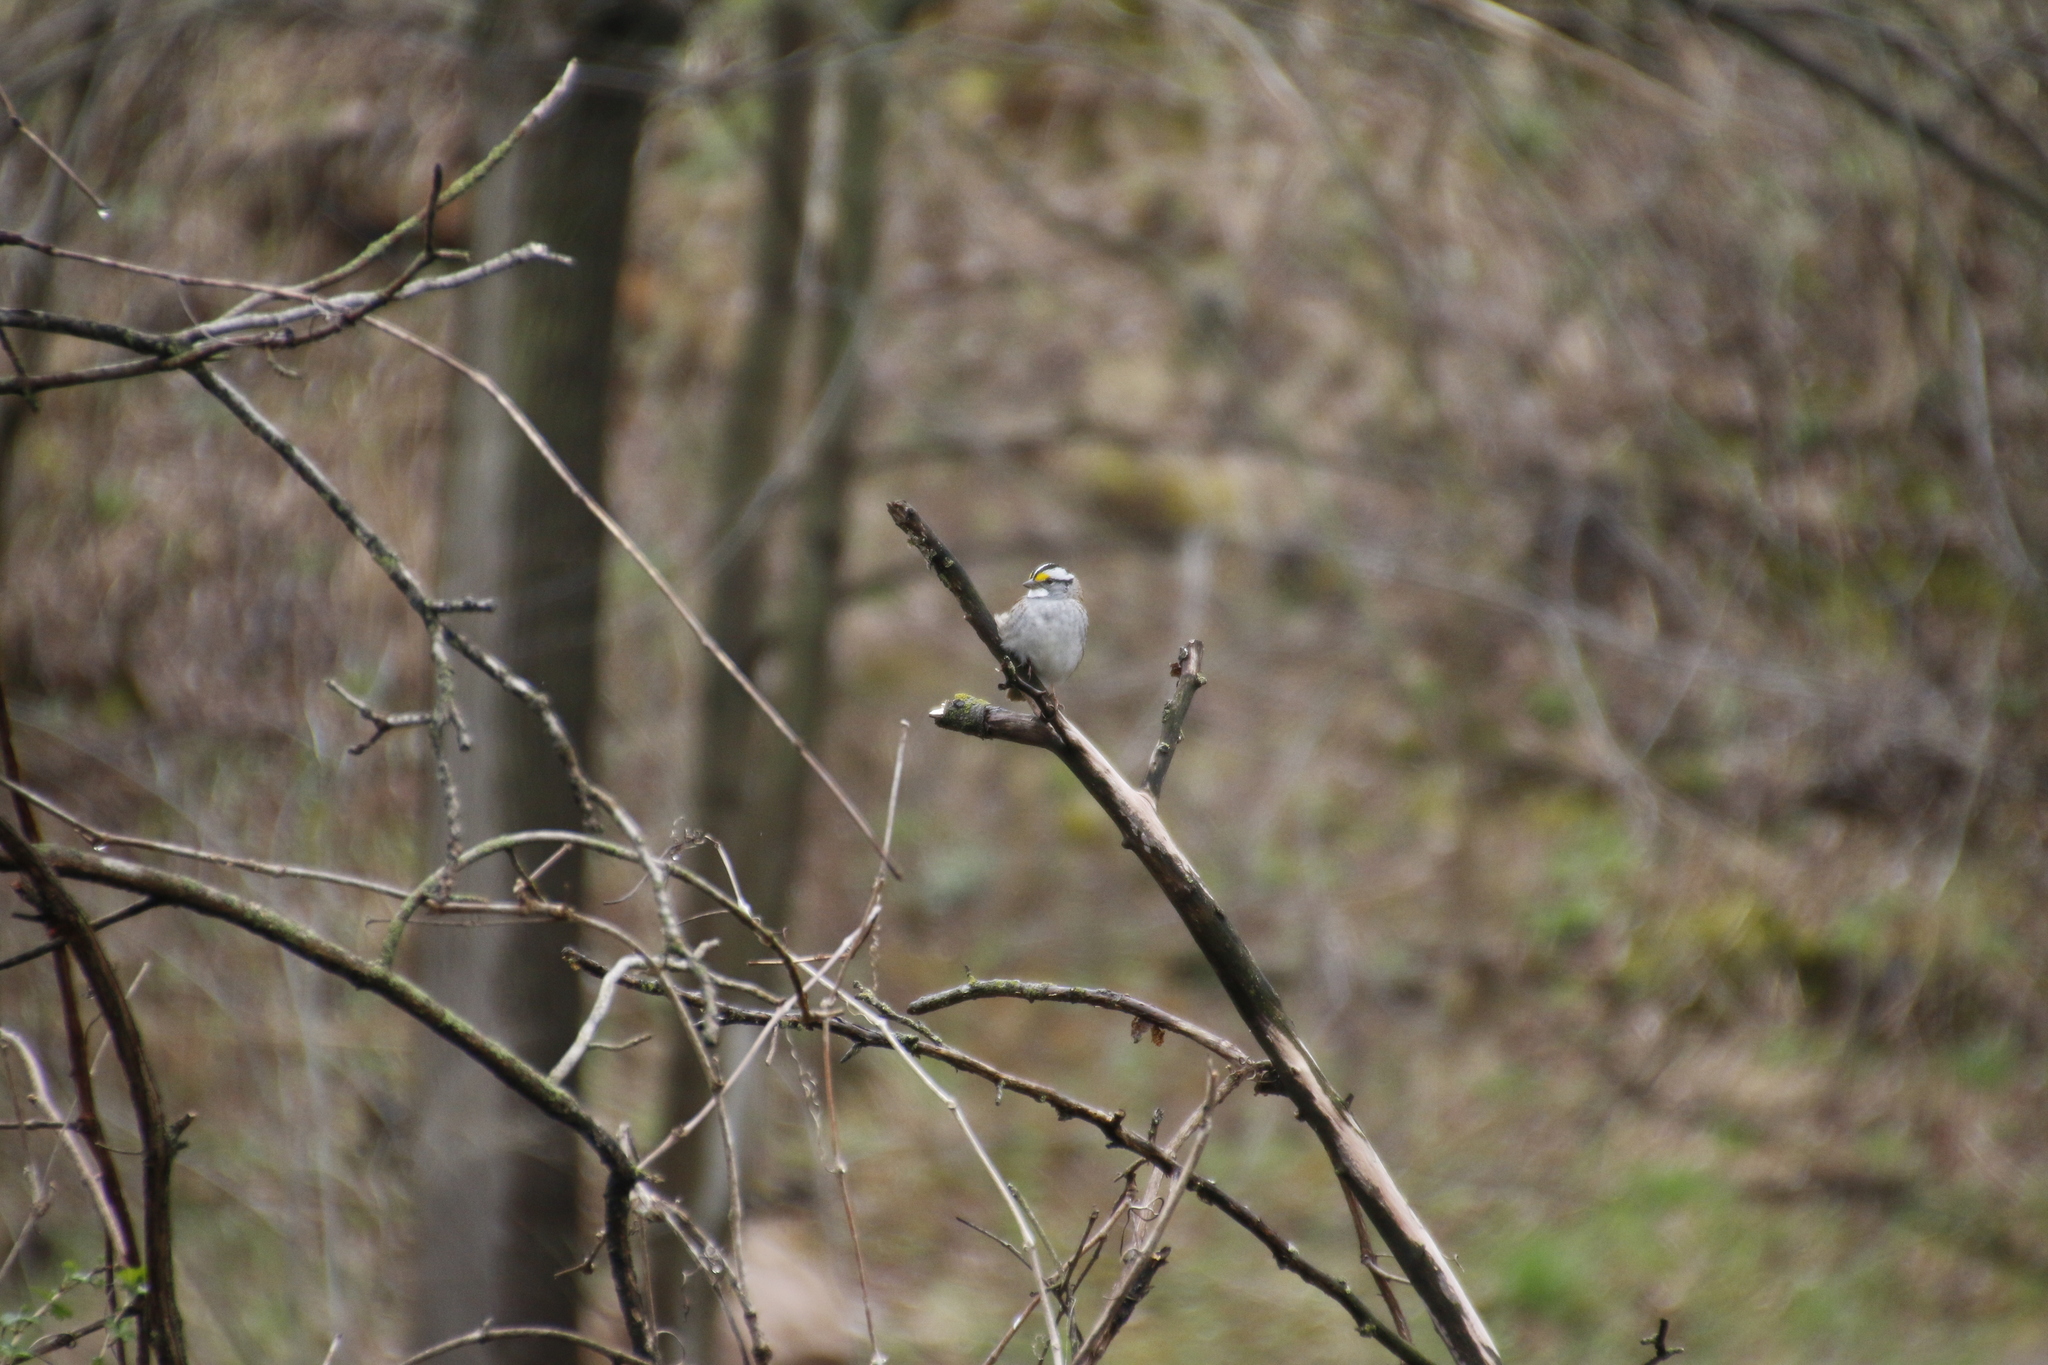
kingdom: Animalia
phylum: Chordata
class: Aves
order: Passeriformes
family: Passerellidae
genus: Zonotrichia
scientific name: Zonotrichia albicollis
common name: White-throated sparrow
